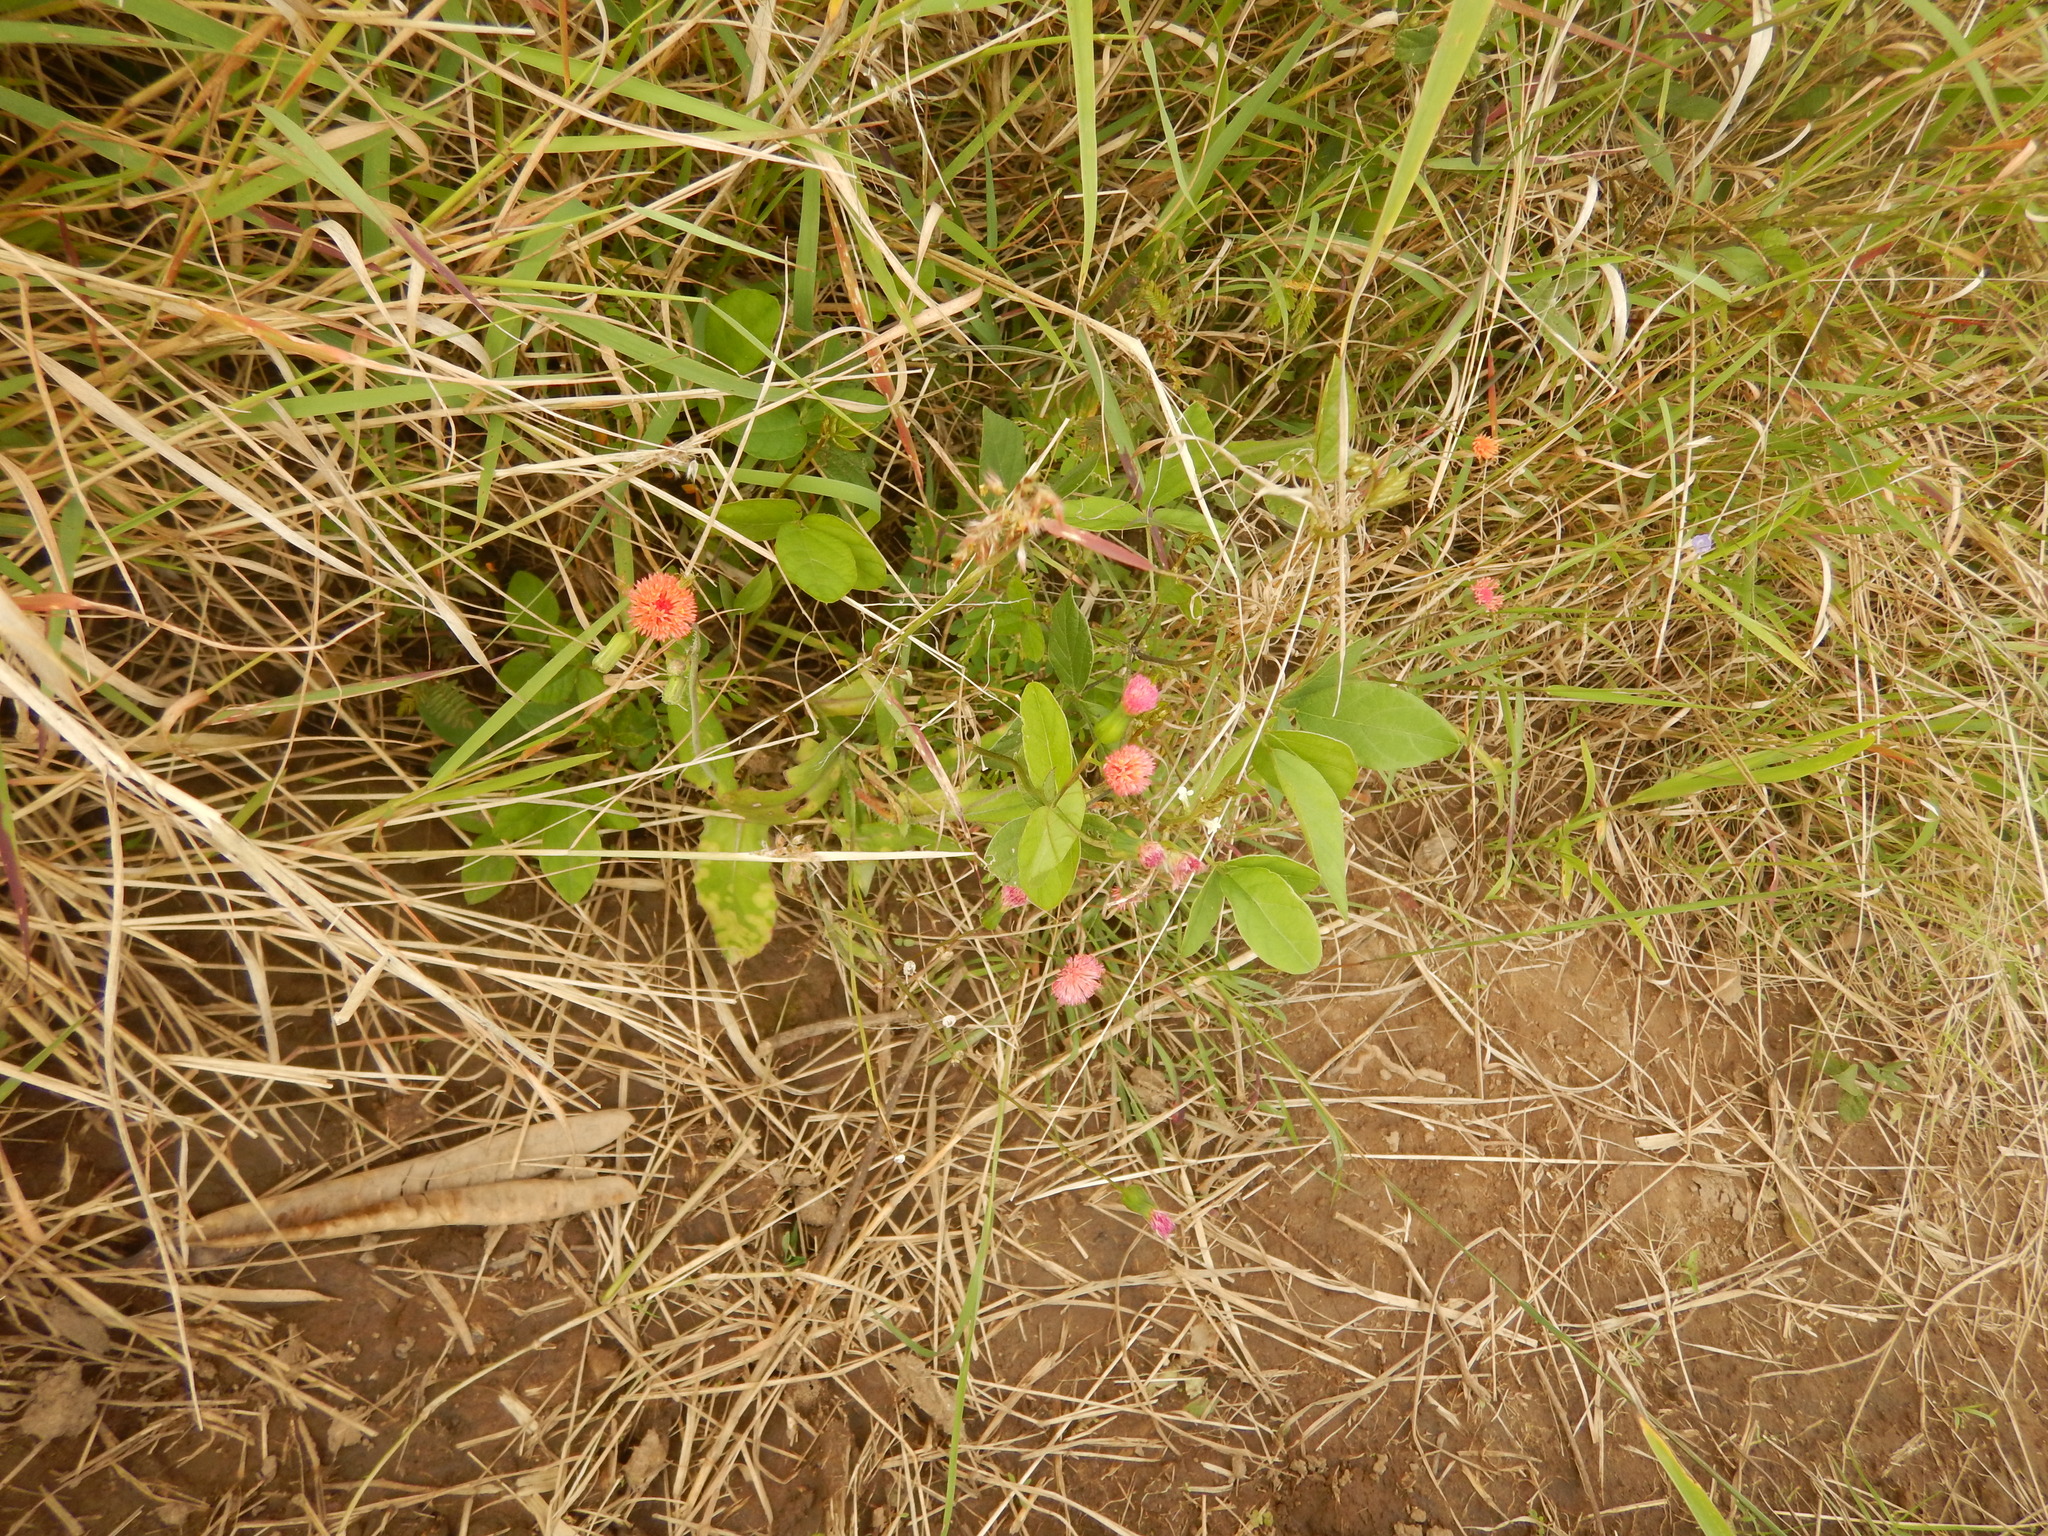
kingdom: Plantae
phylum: Tracheophyta
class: Magnoliopsida
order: Asterales
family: Asteraceae
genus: Emilia
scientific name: Emilia fosbergii
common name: Florida tasselflower
